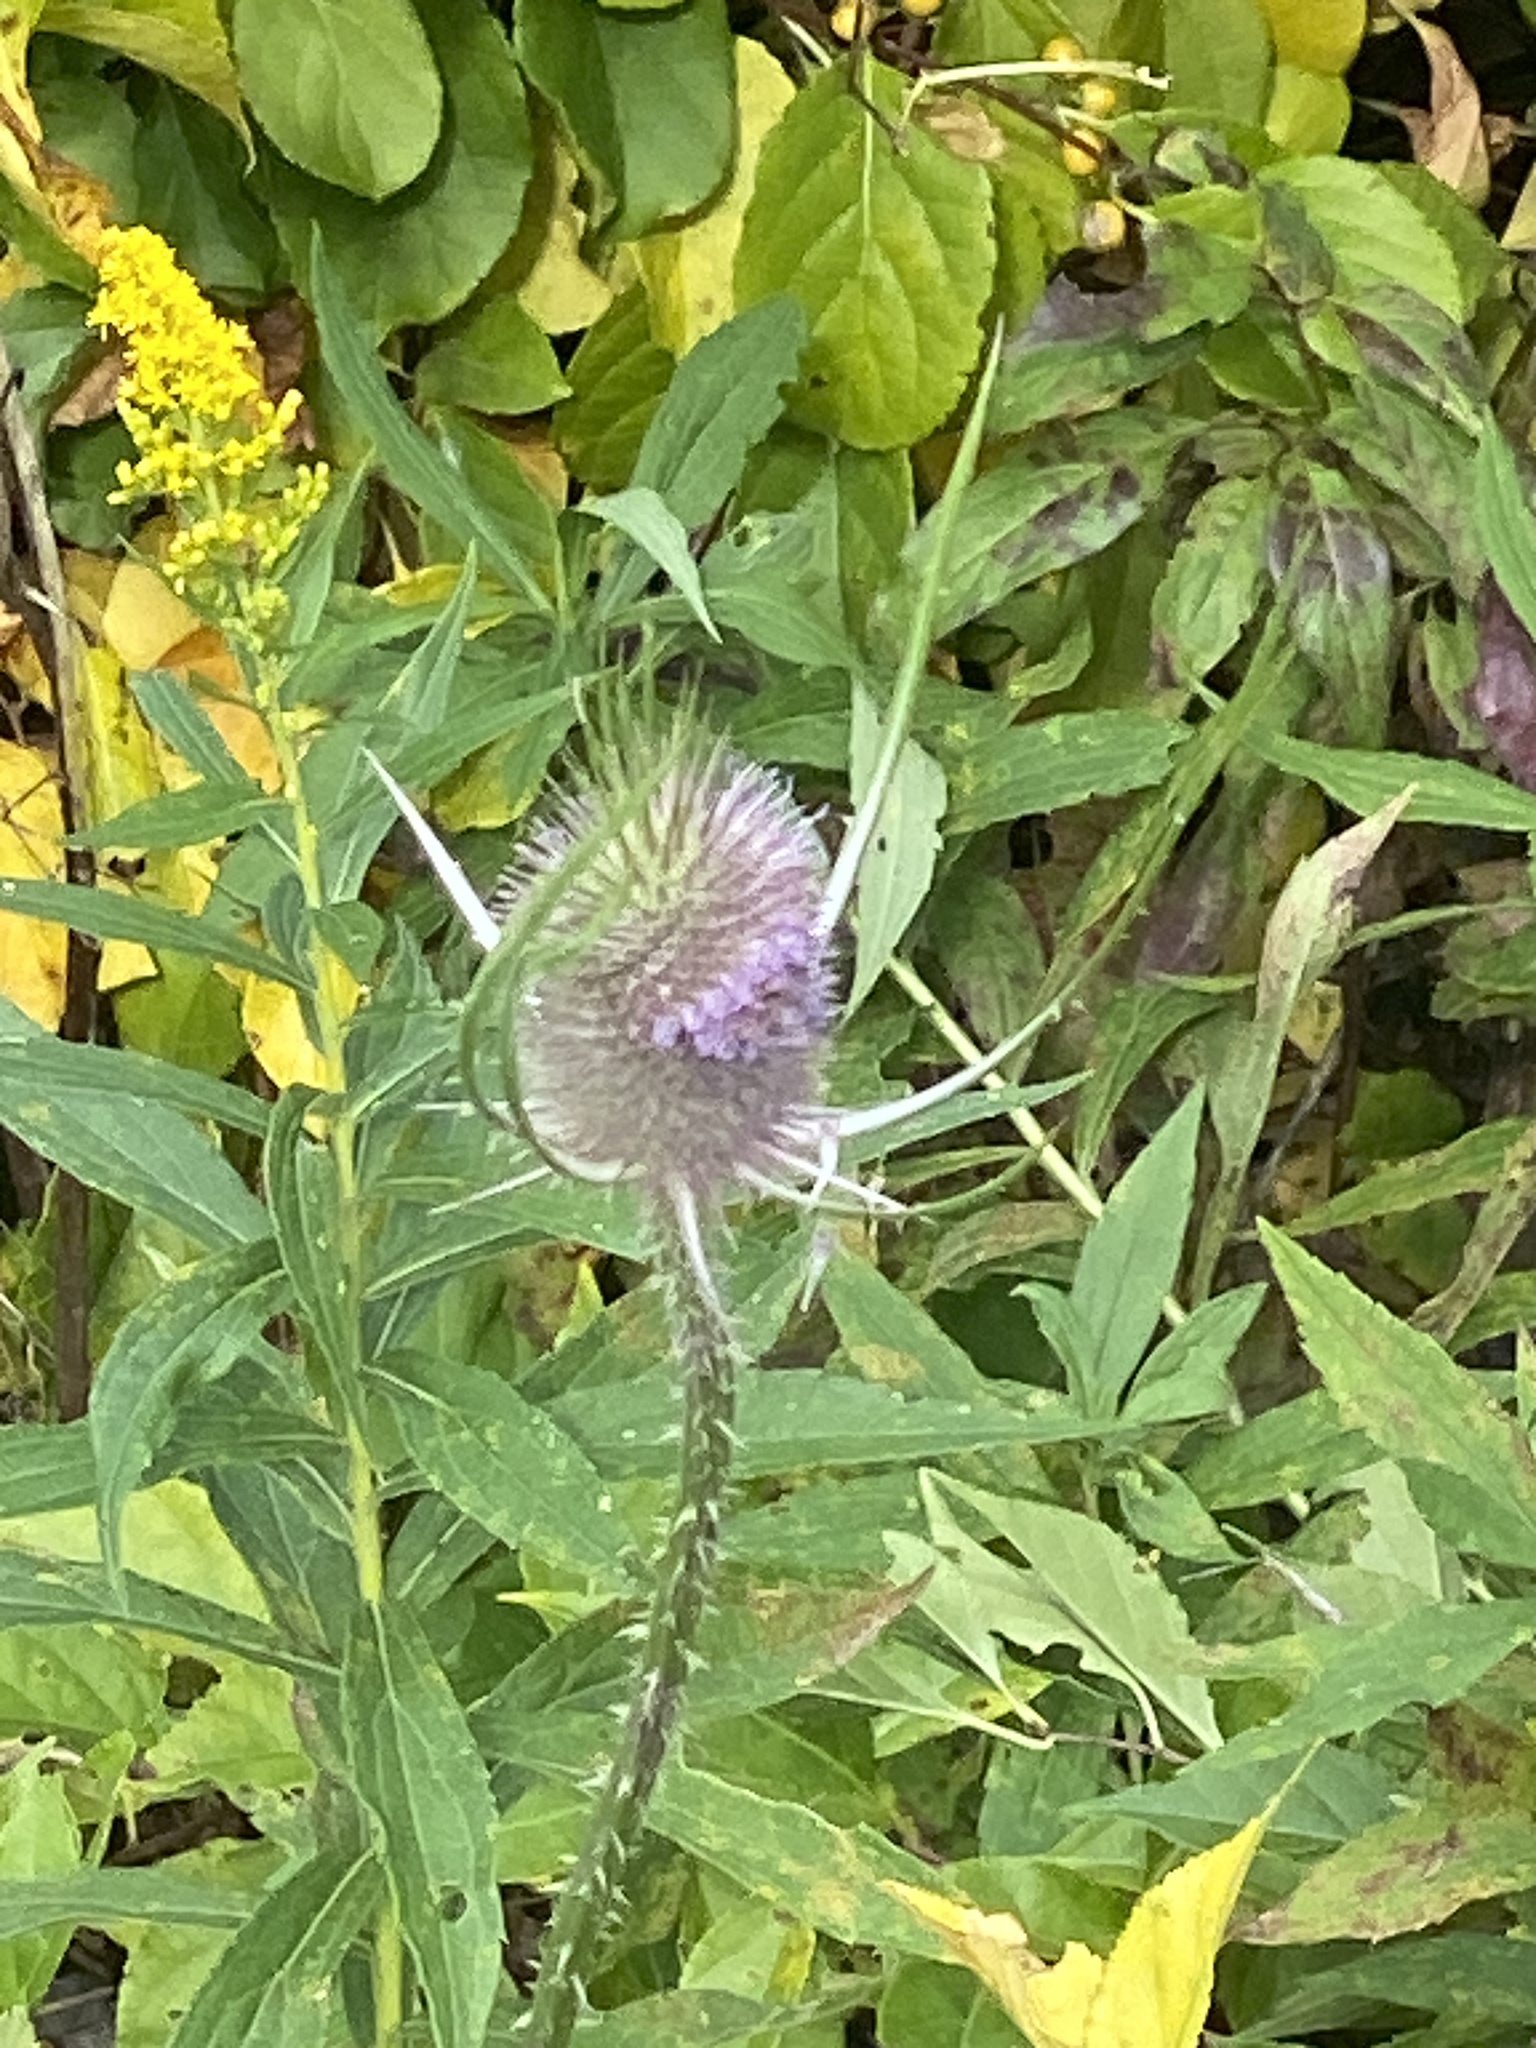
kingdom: Plantae
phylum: Tracheophyta
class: Magnoliopsida
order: Dipsacales
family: Caprifoliaceae
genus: Dipsacus
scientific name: Dipsacus fullonum
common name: Teasel
